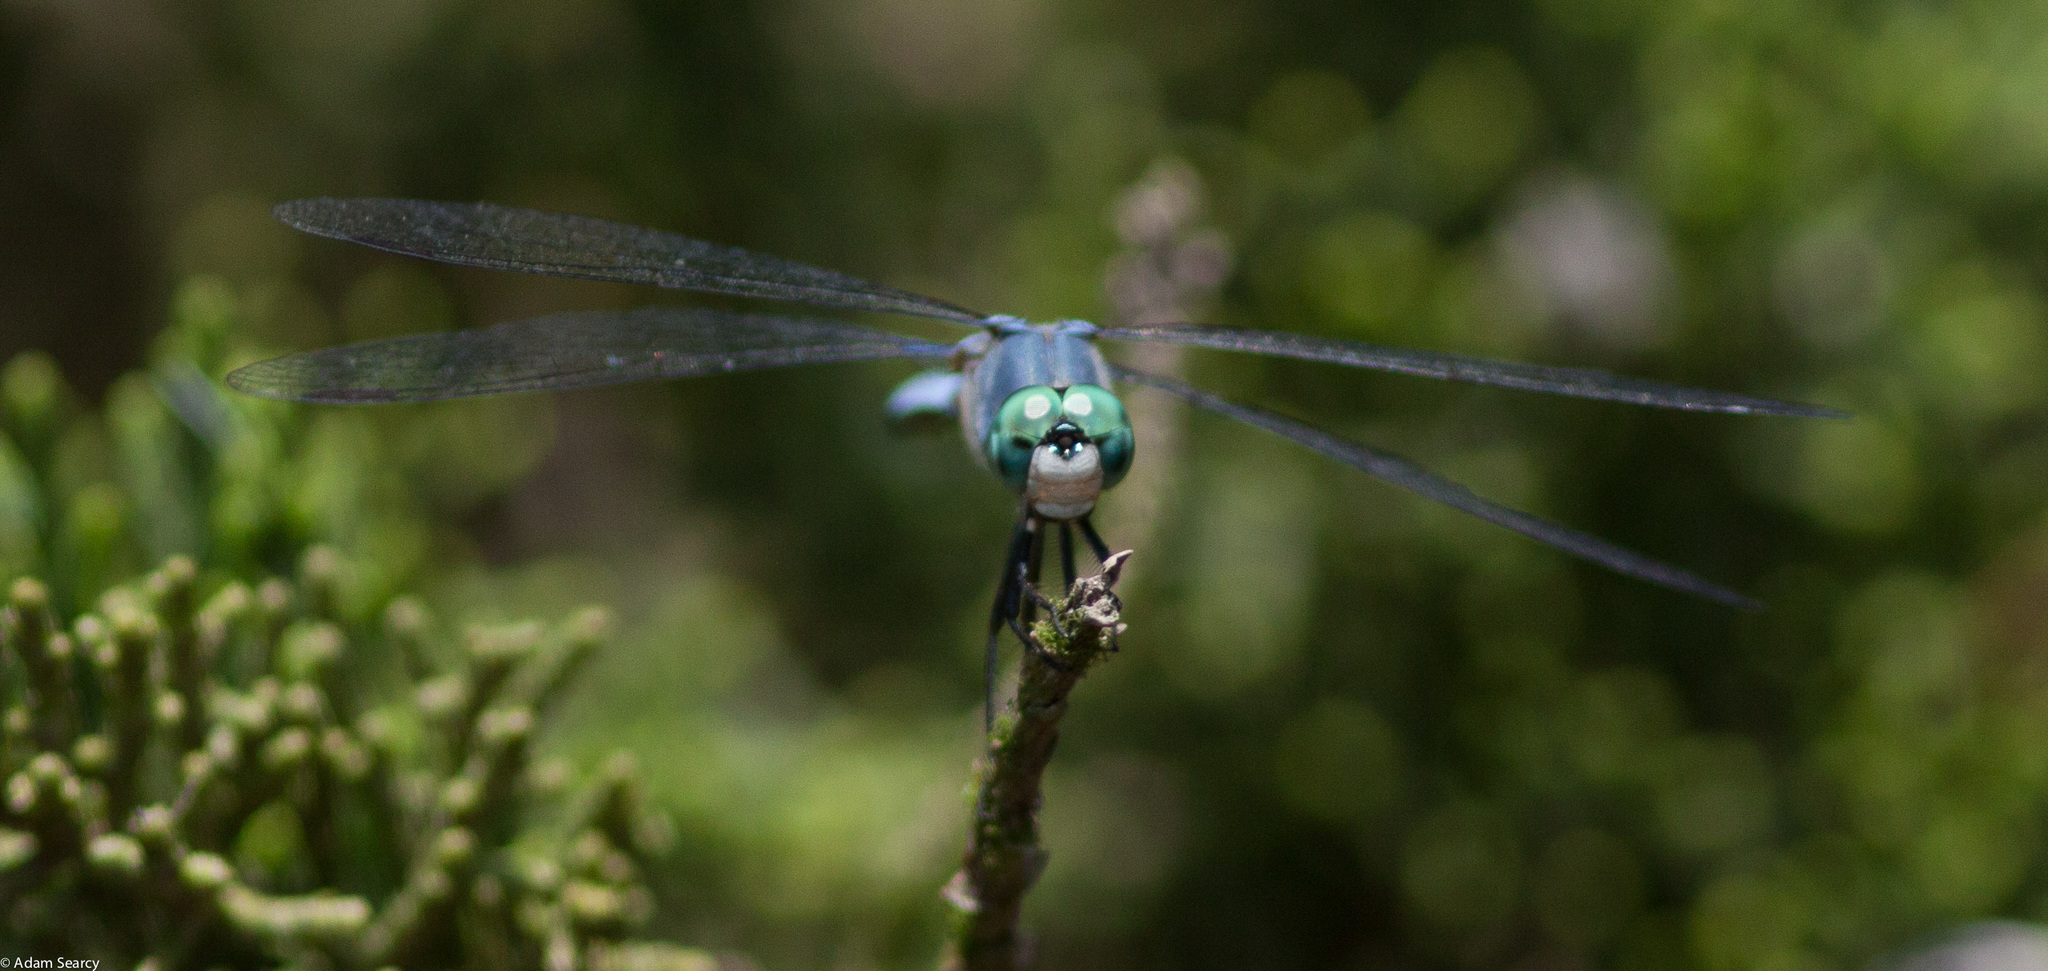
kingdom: Animalia
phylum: Arthropoda
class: Insecta
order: Odonata
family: Libellulidae
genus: Pachydiplax
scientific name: Pachydiplax longipennis
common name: Blue dasher
